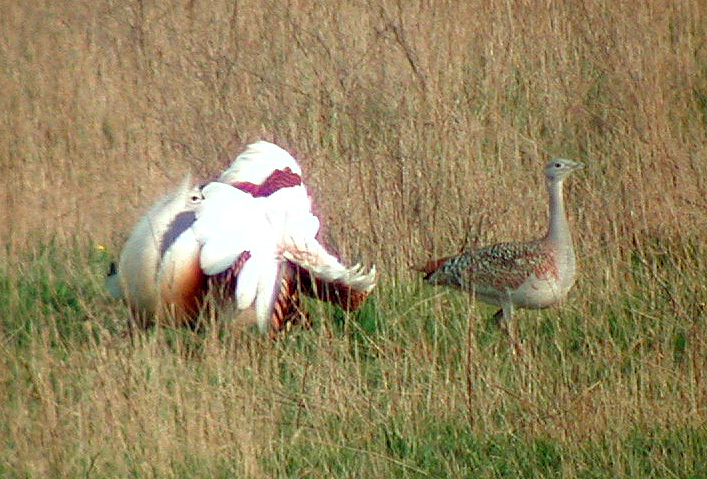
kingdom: Animalia
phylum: Chordata
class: Aves
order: Otidiformes
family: Otididae
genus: Otis
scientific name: Otis tarda
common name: Great bustard
